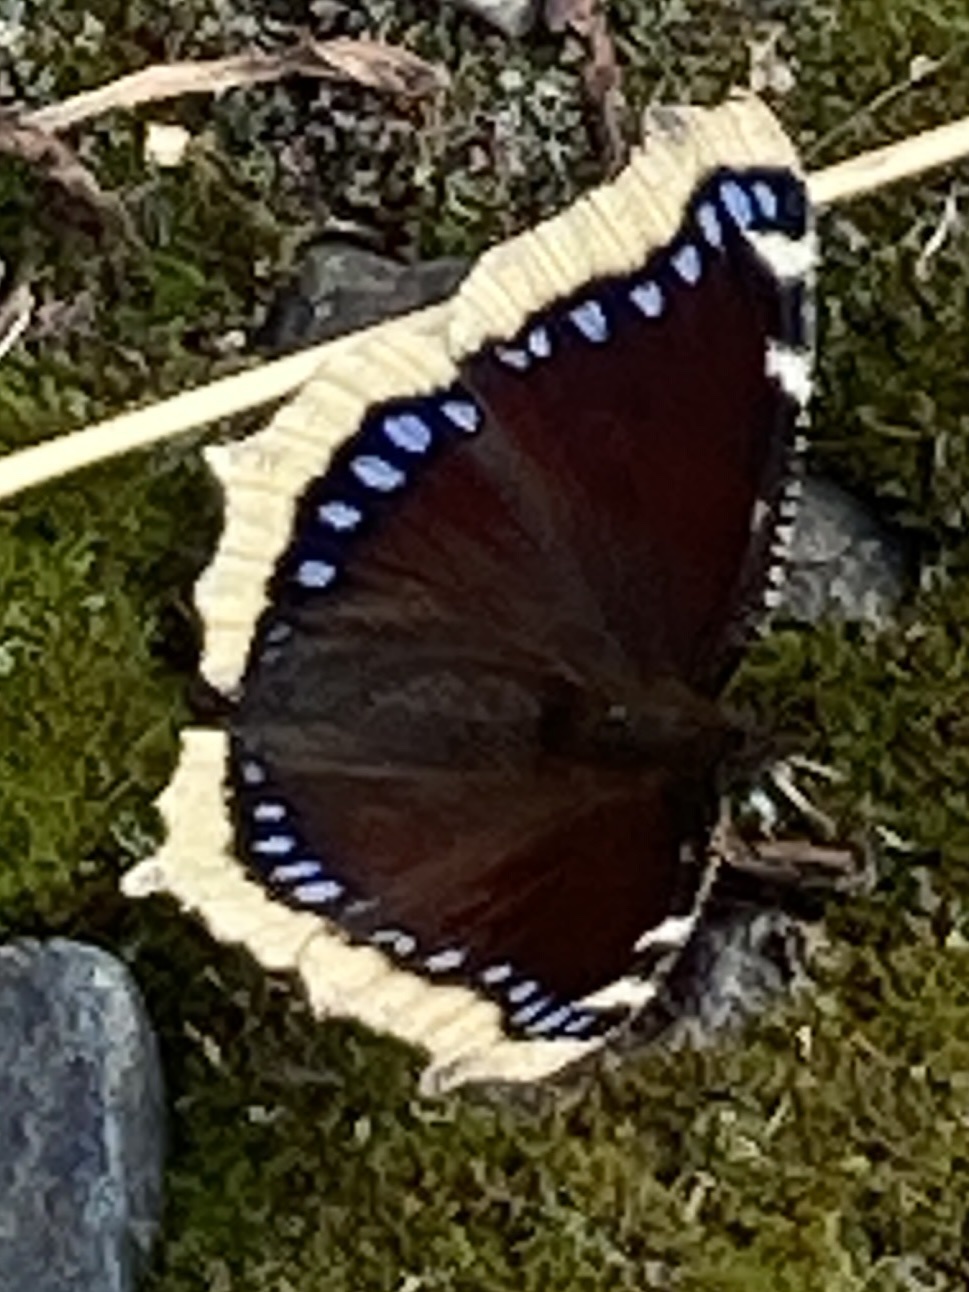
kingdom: Animalia
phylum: Arthropoda
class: Insecta
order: Lepidoptera
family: Nymphalidae
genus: Nymphalis
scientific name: Nymphalis antiopa
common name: Camberwell beauty
